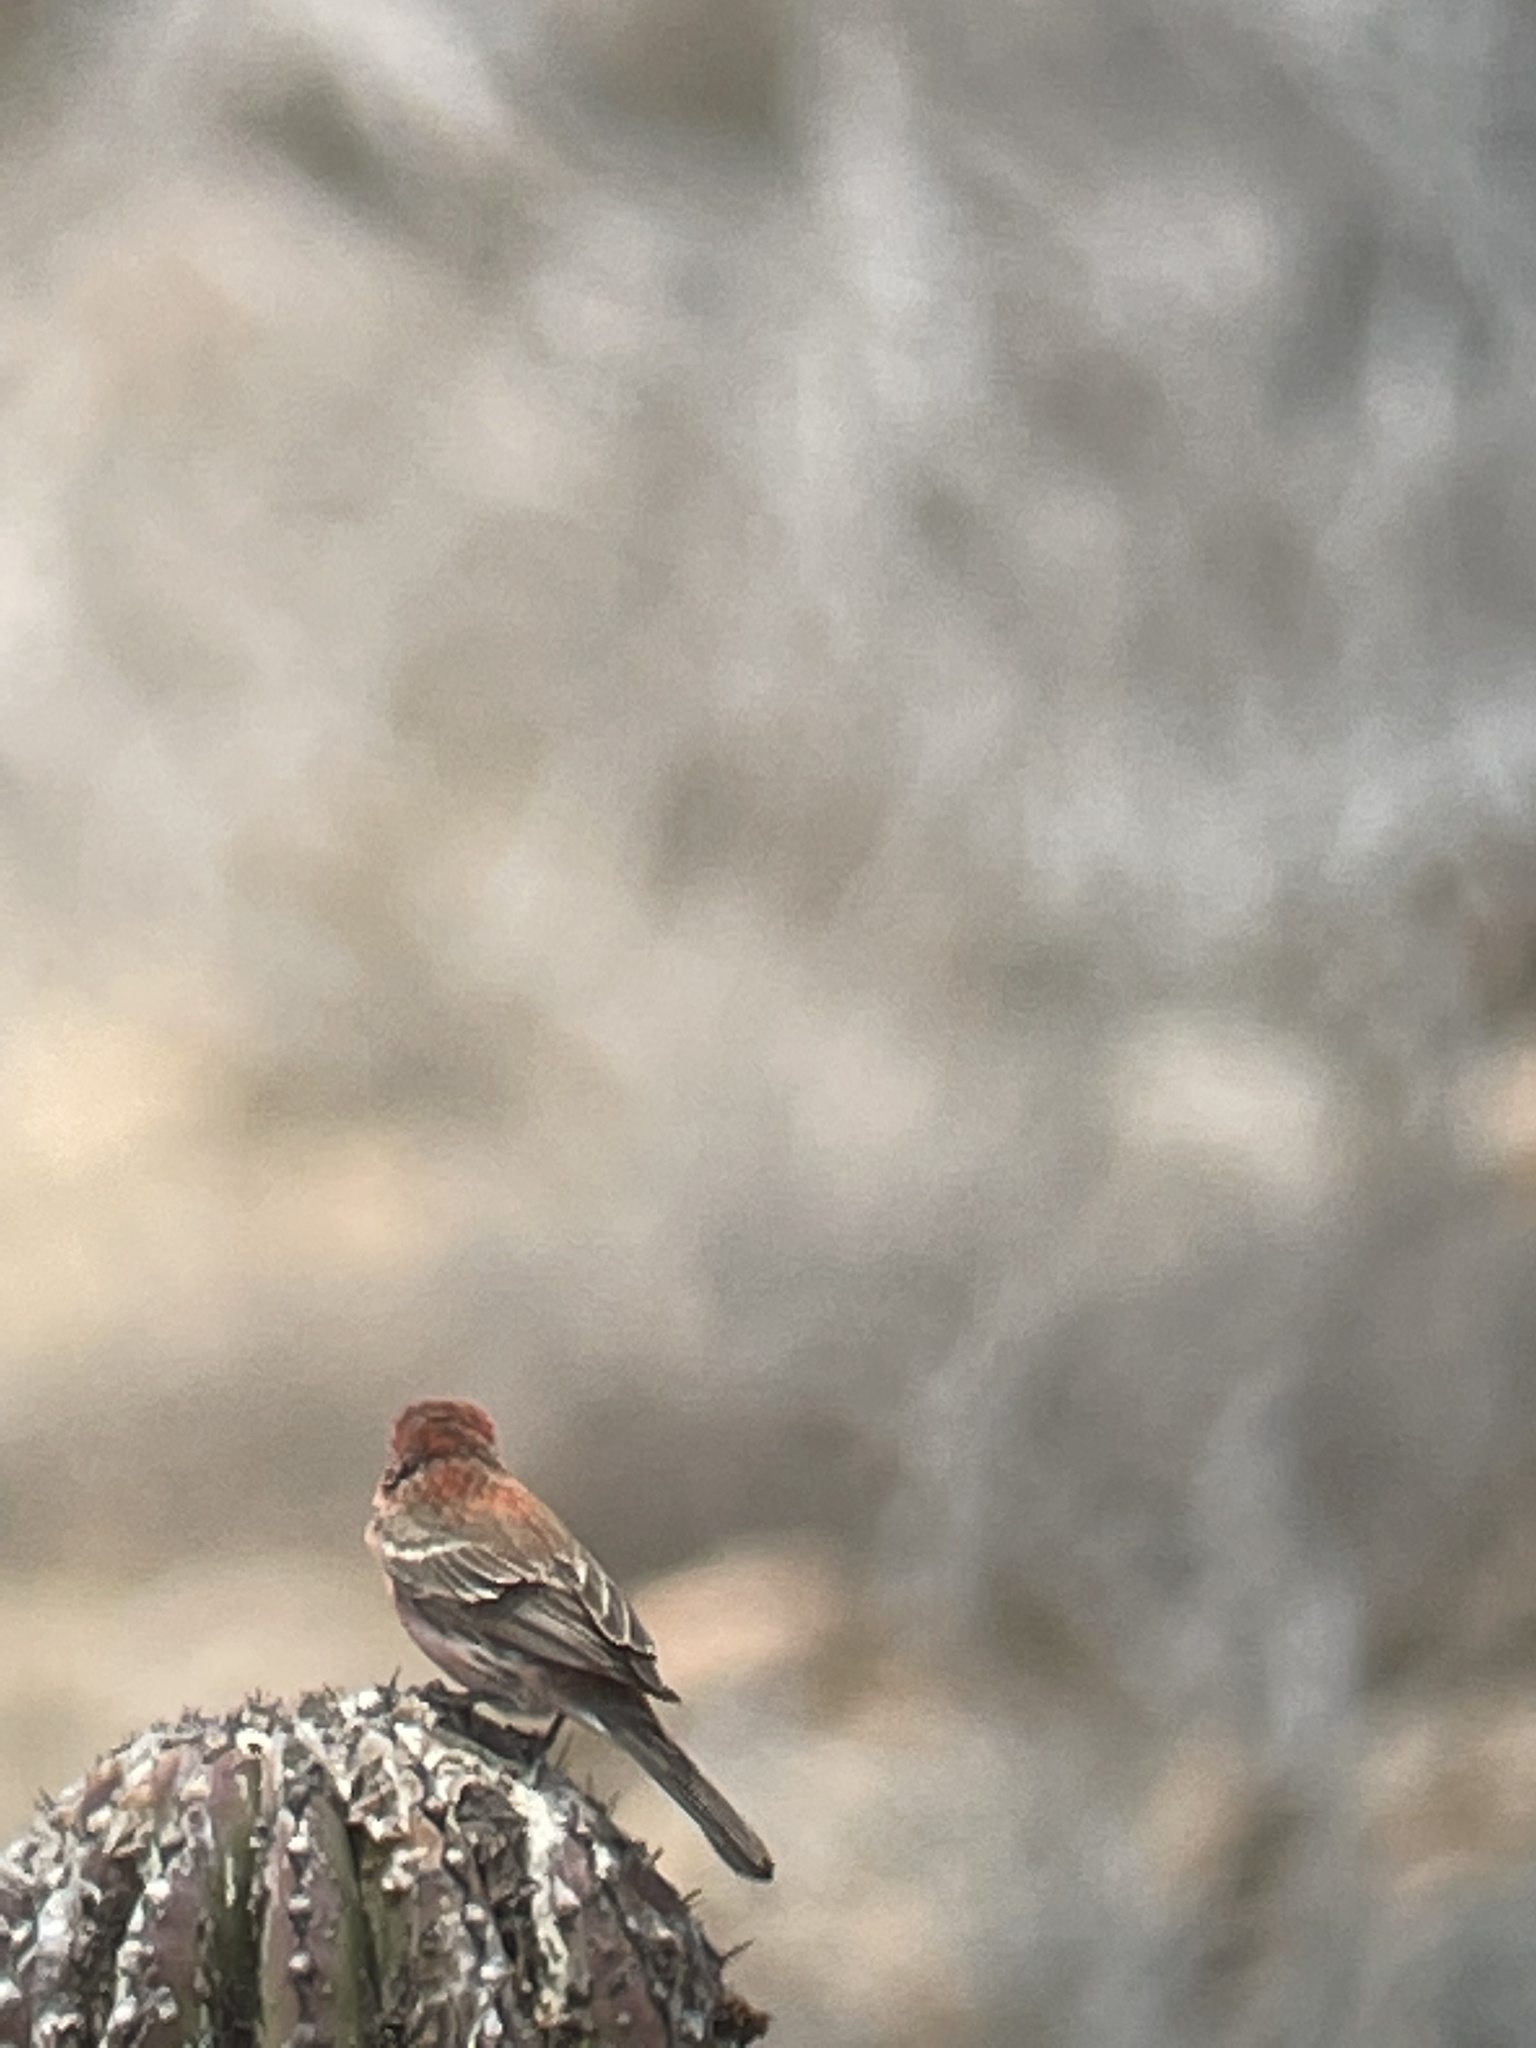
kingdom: Animalia
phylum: Chordata
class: Aves
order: Passeriformes
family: Fringillidae
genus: Haemorhous
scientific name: Haemorhous mexicanus
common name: House finch
